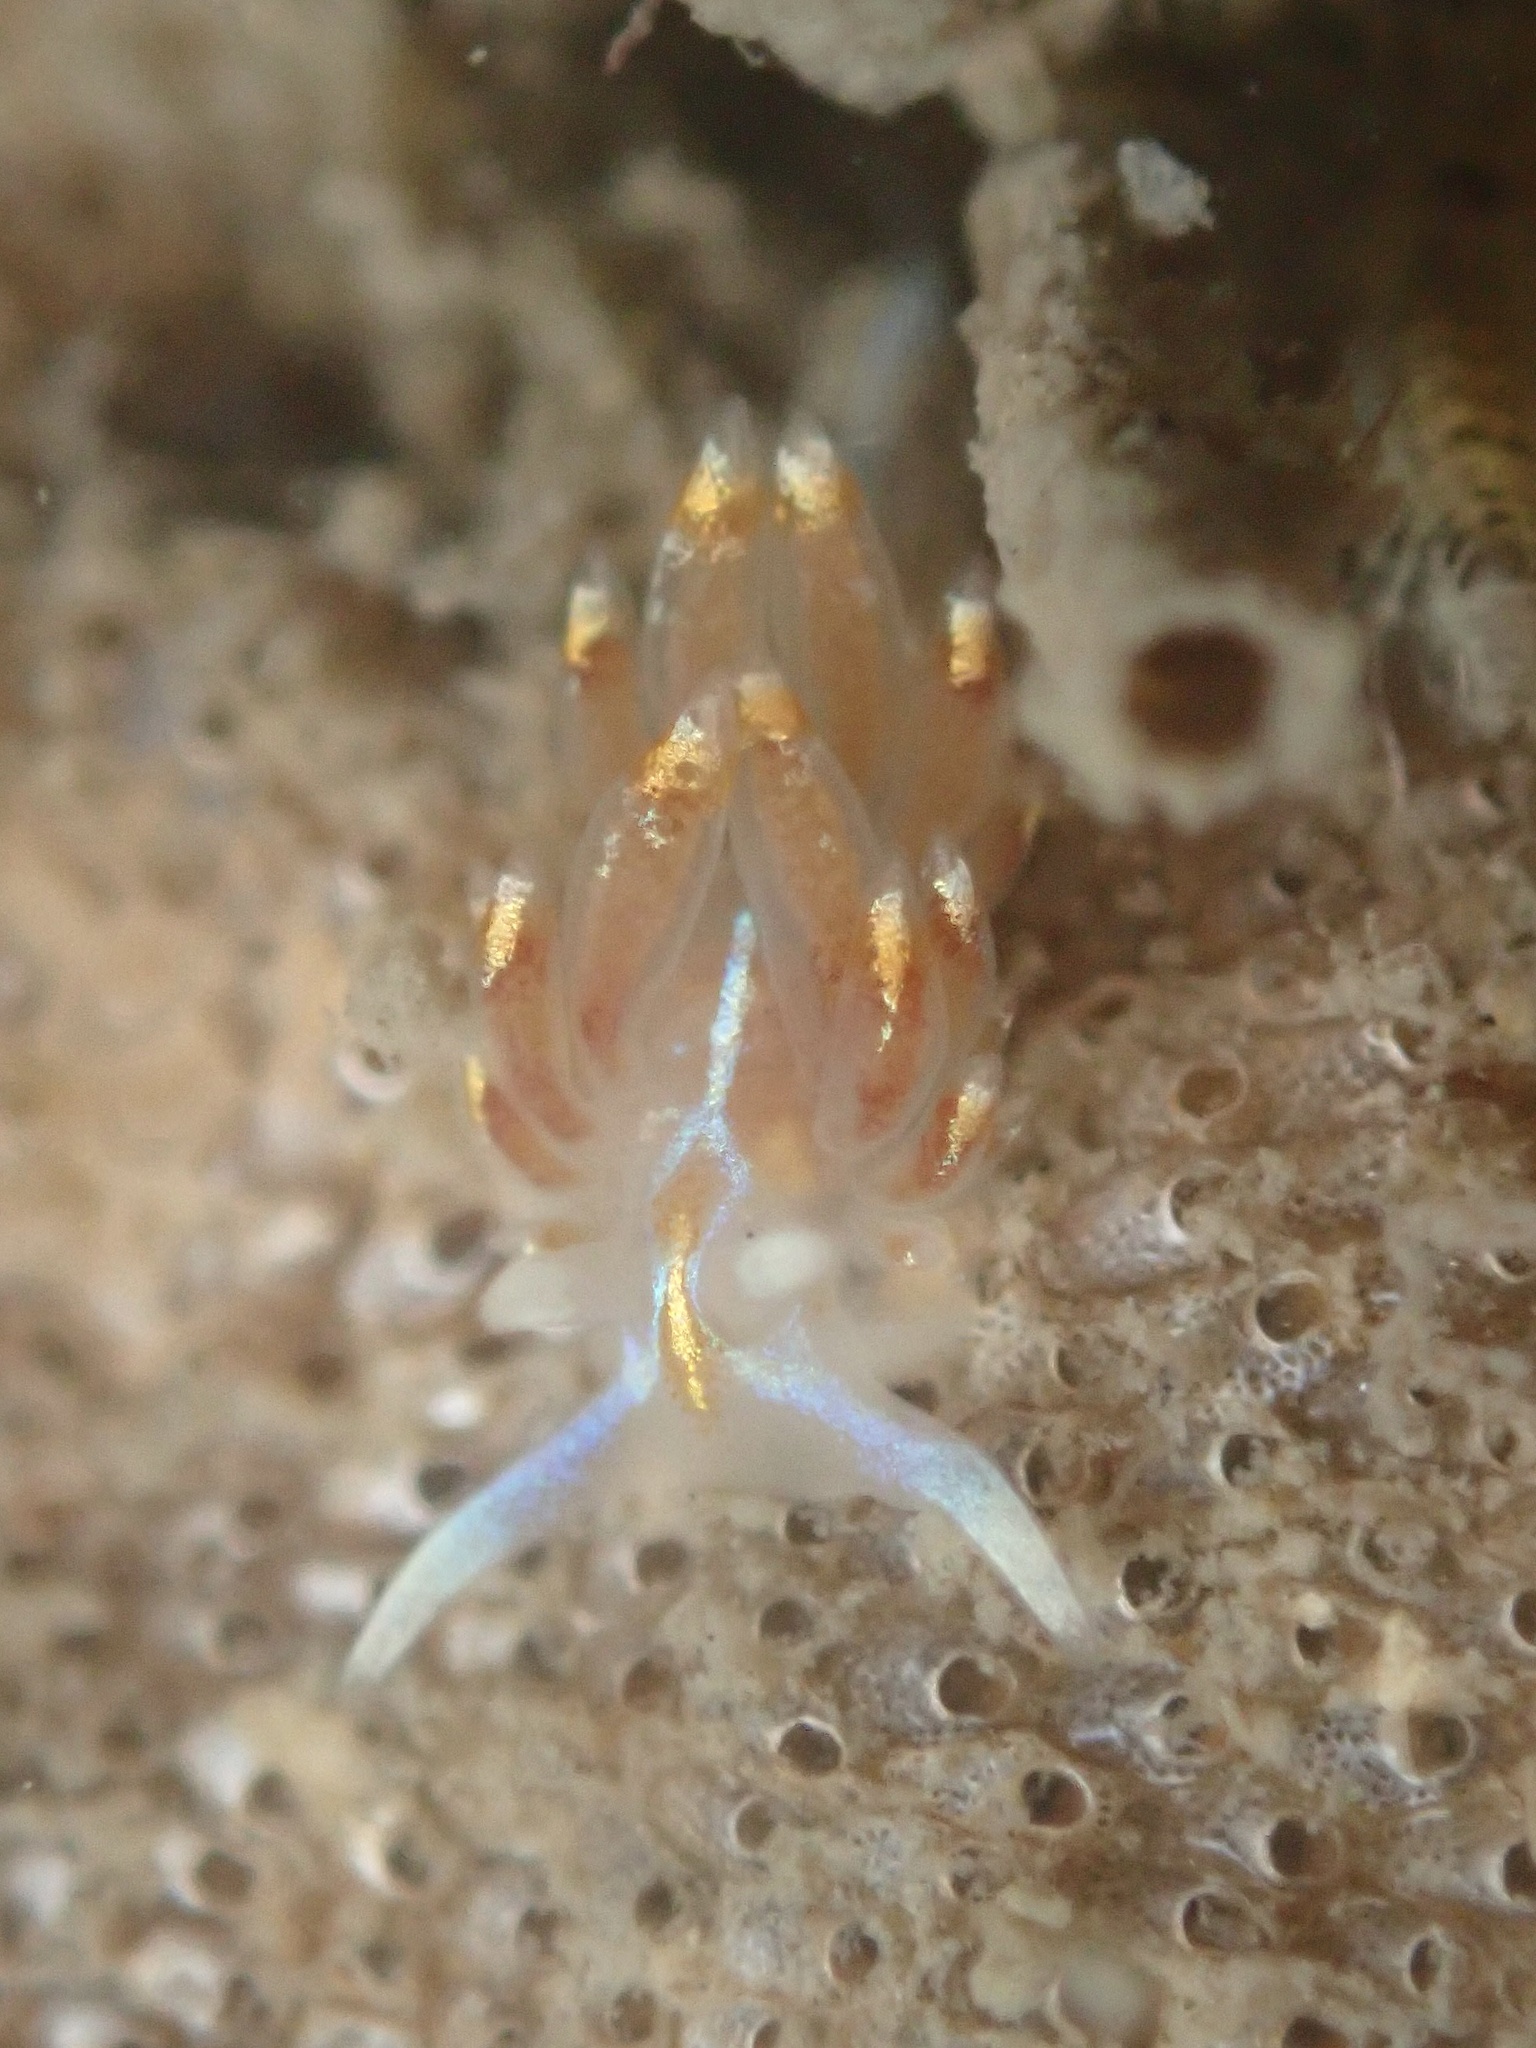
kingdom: Animalia
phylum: Mollusca
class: Gastropoda
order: Nudibranchia
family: Myrrhinidae
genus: Hermissenda
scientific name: Hermissenda opalescens
